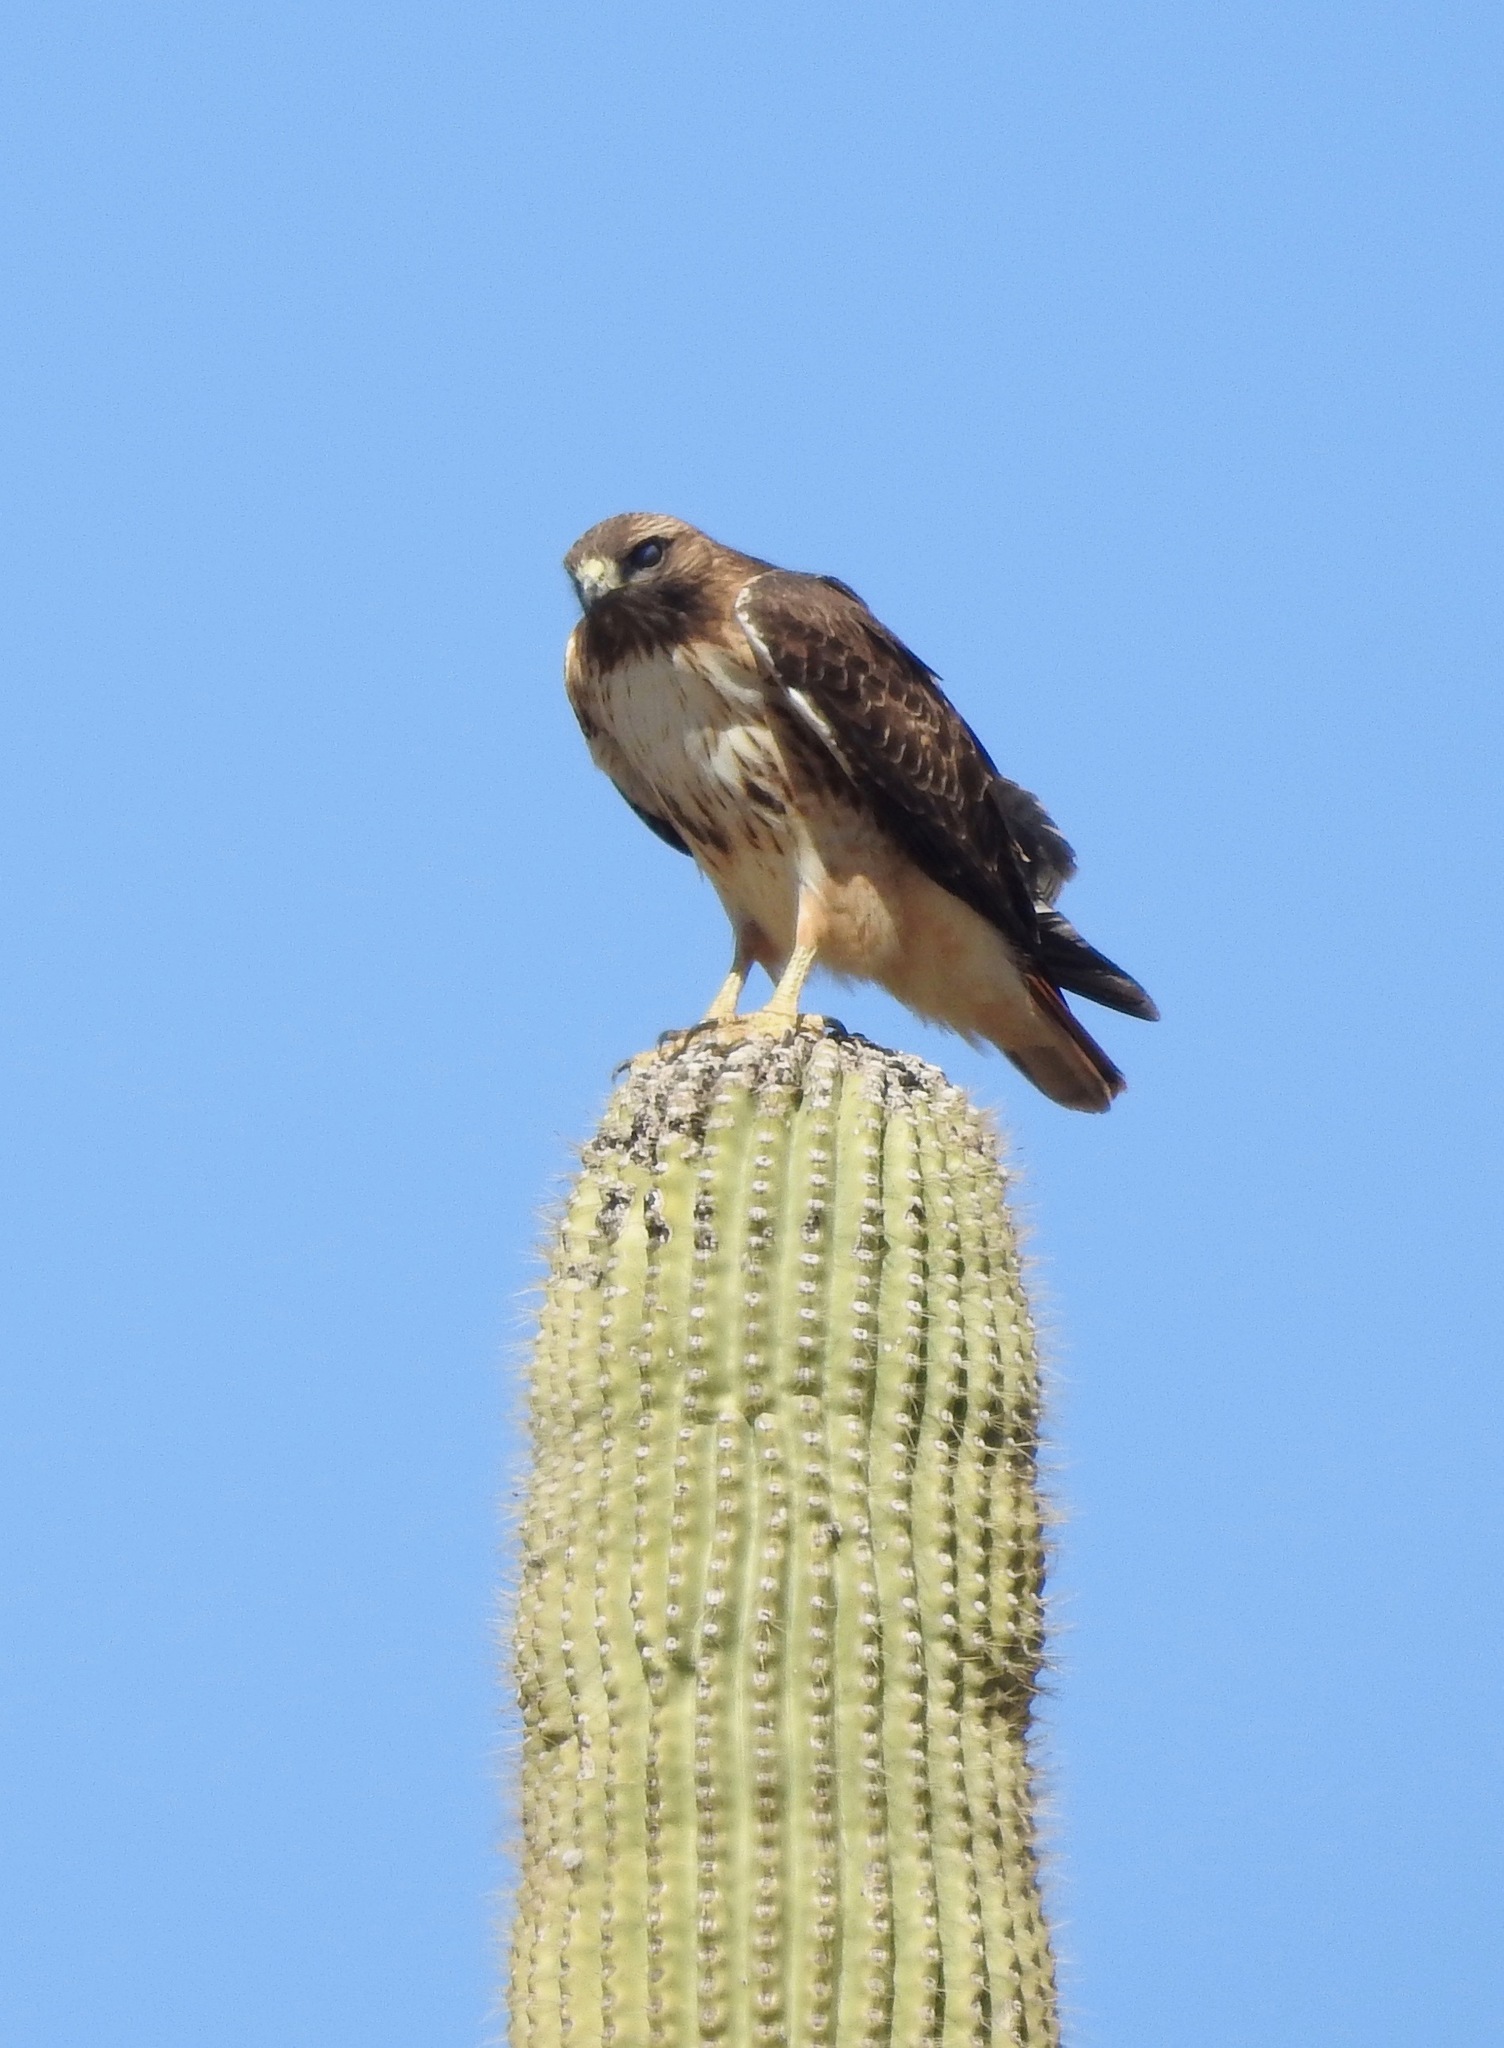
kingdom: Animalia
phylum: Chordata
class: Aves
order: Accipitriformes
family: Accipitridae
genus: Buteo
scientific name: Buteo jamaicensis
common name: Red-tailed hawk
